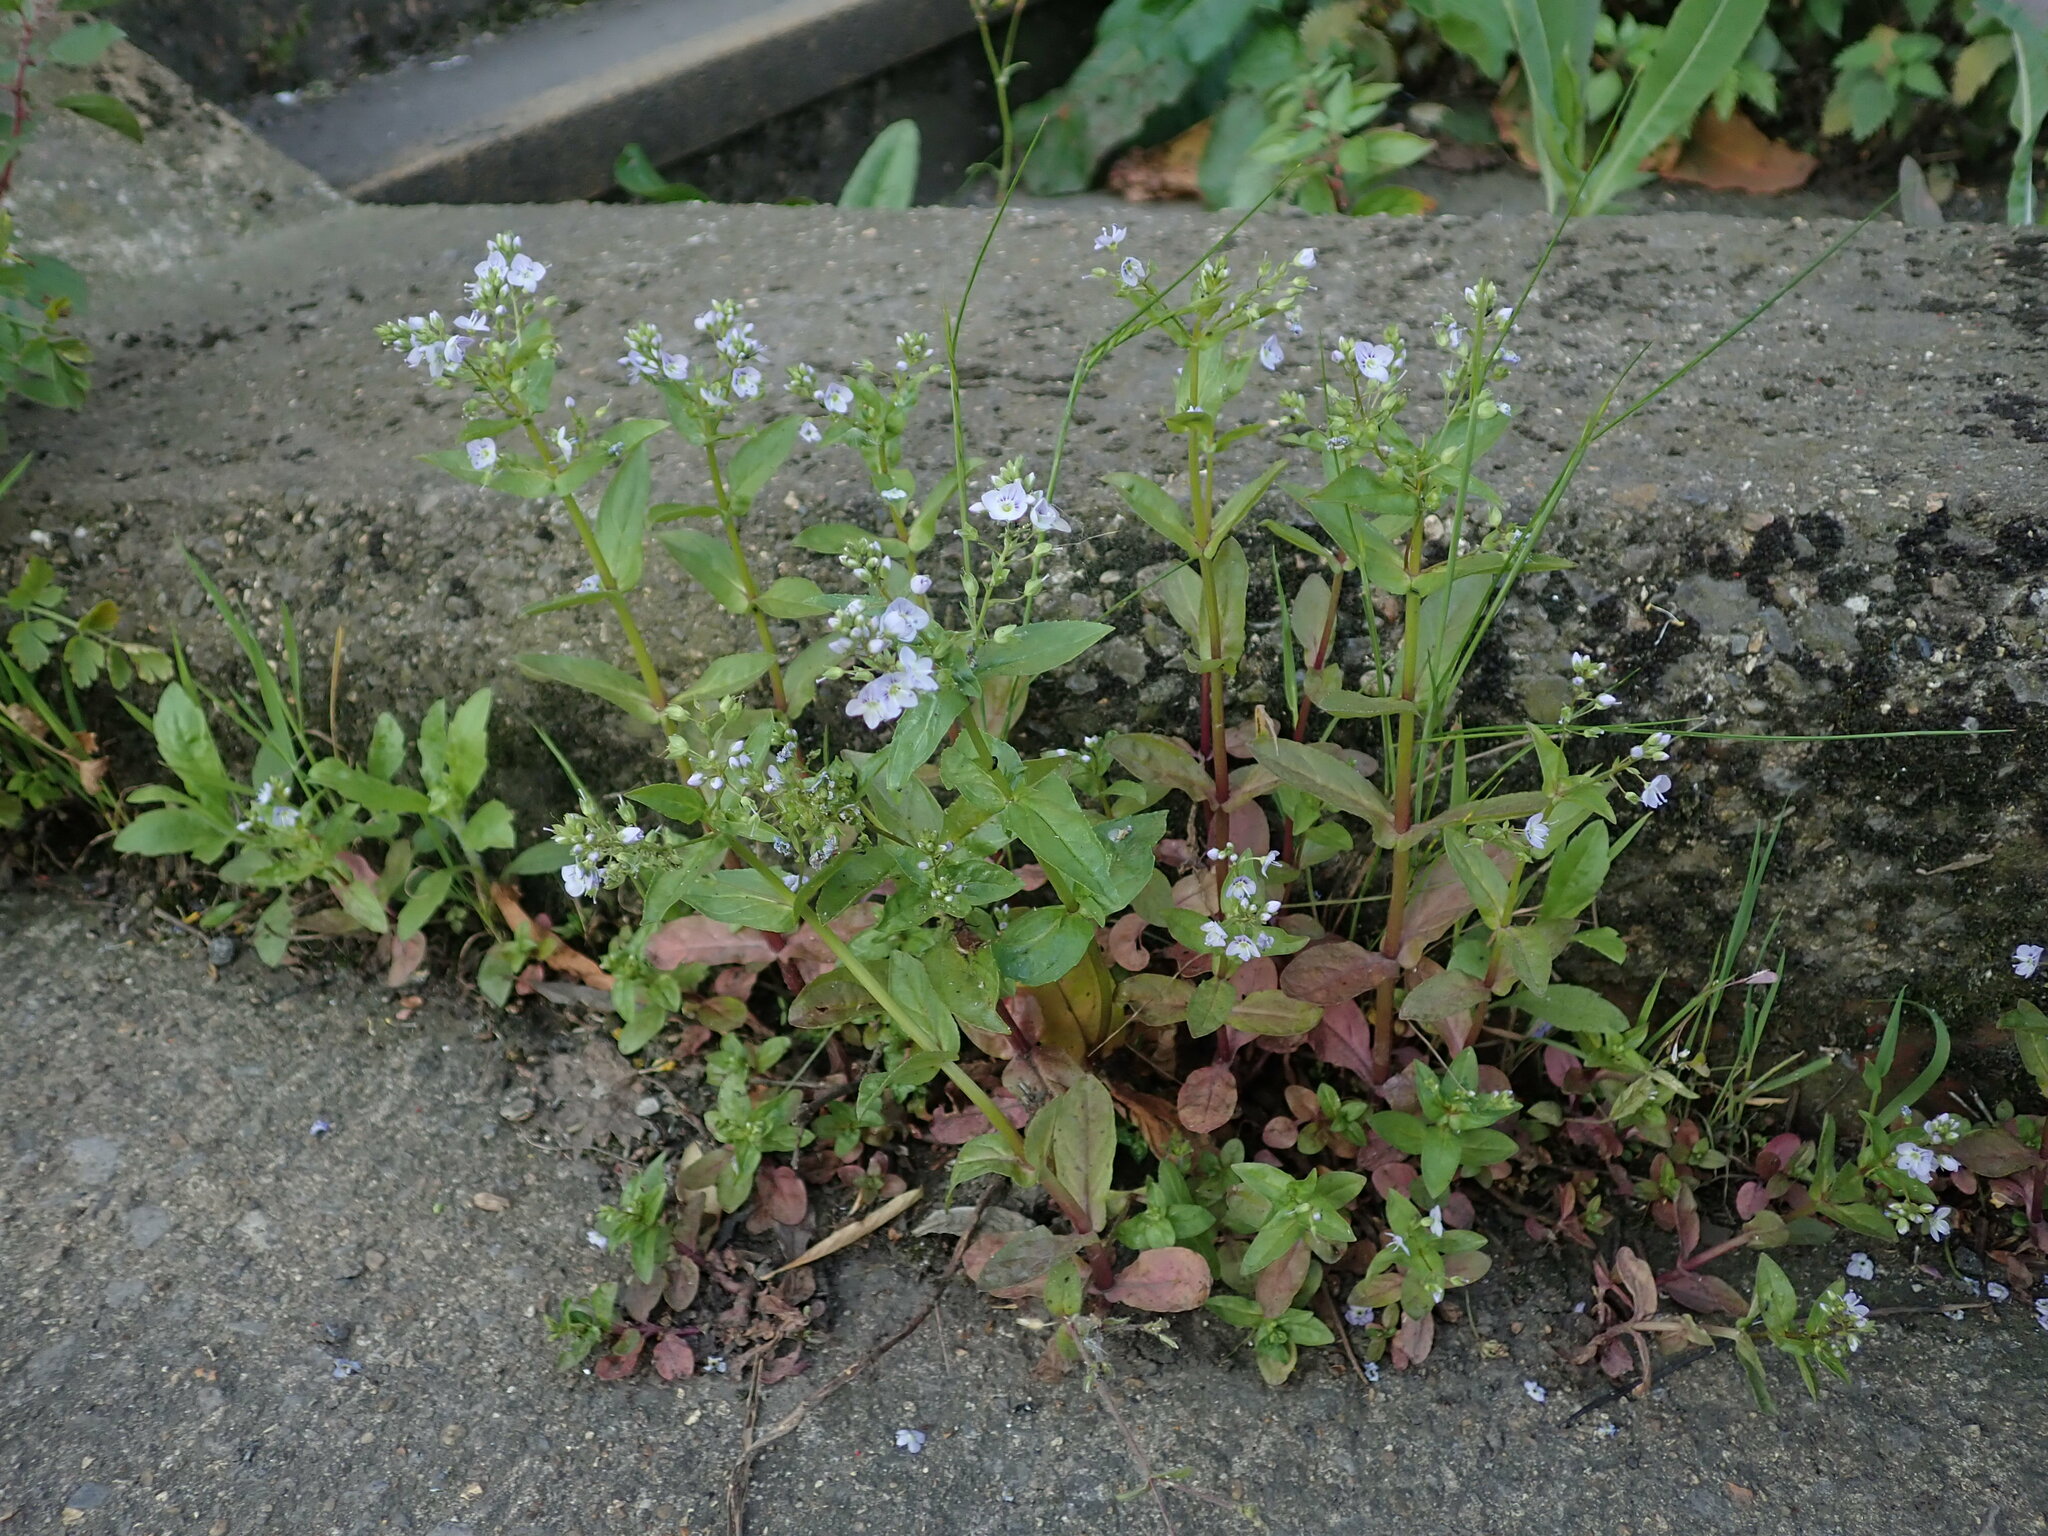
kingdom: Plantae
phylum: Tracheophyta
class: Magnoliopsida
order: Lamiales
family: Plantaginaceae
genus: Veronica
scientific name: Veronica anagallis-aquatica
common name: Water speedwell
